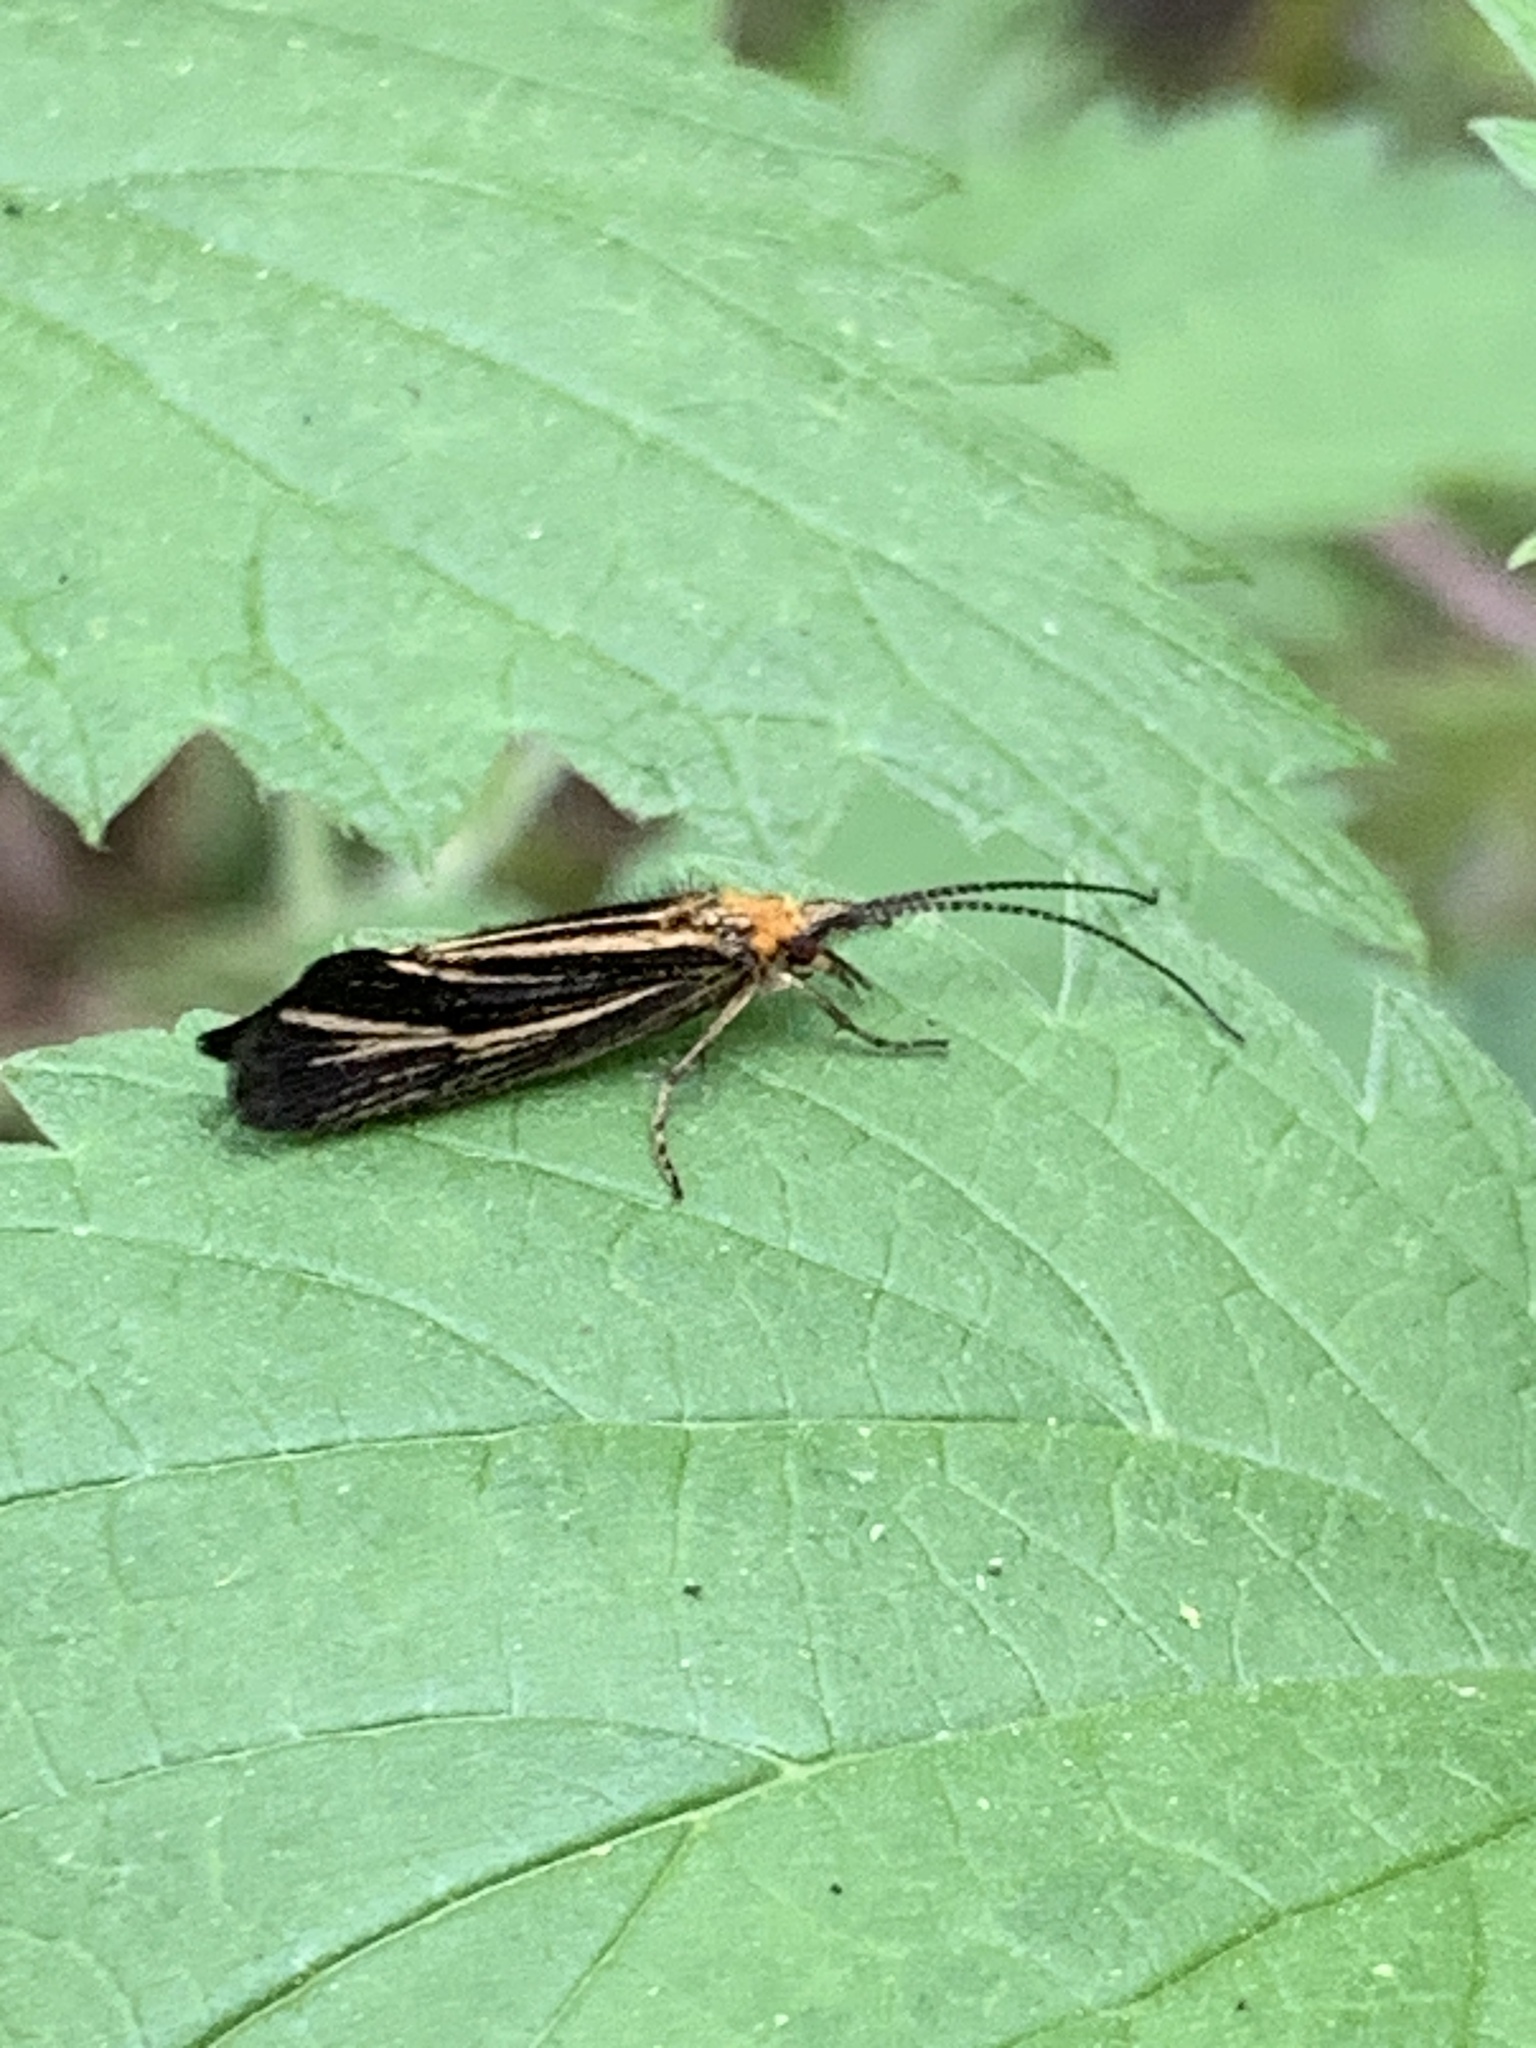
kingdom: Animalia
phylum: Arthropoda
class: Insecta
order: Trichoptera
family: Odontoceridae
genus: Nerophilus
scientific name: Nerophilus californicus
